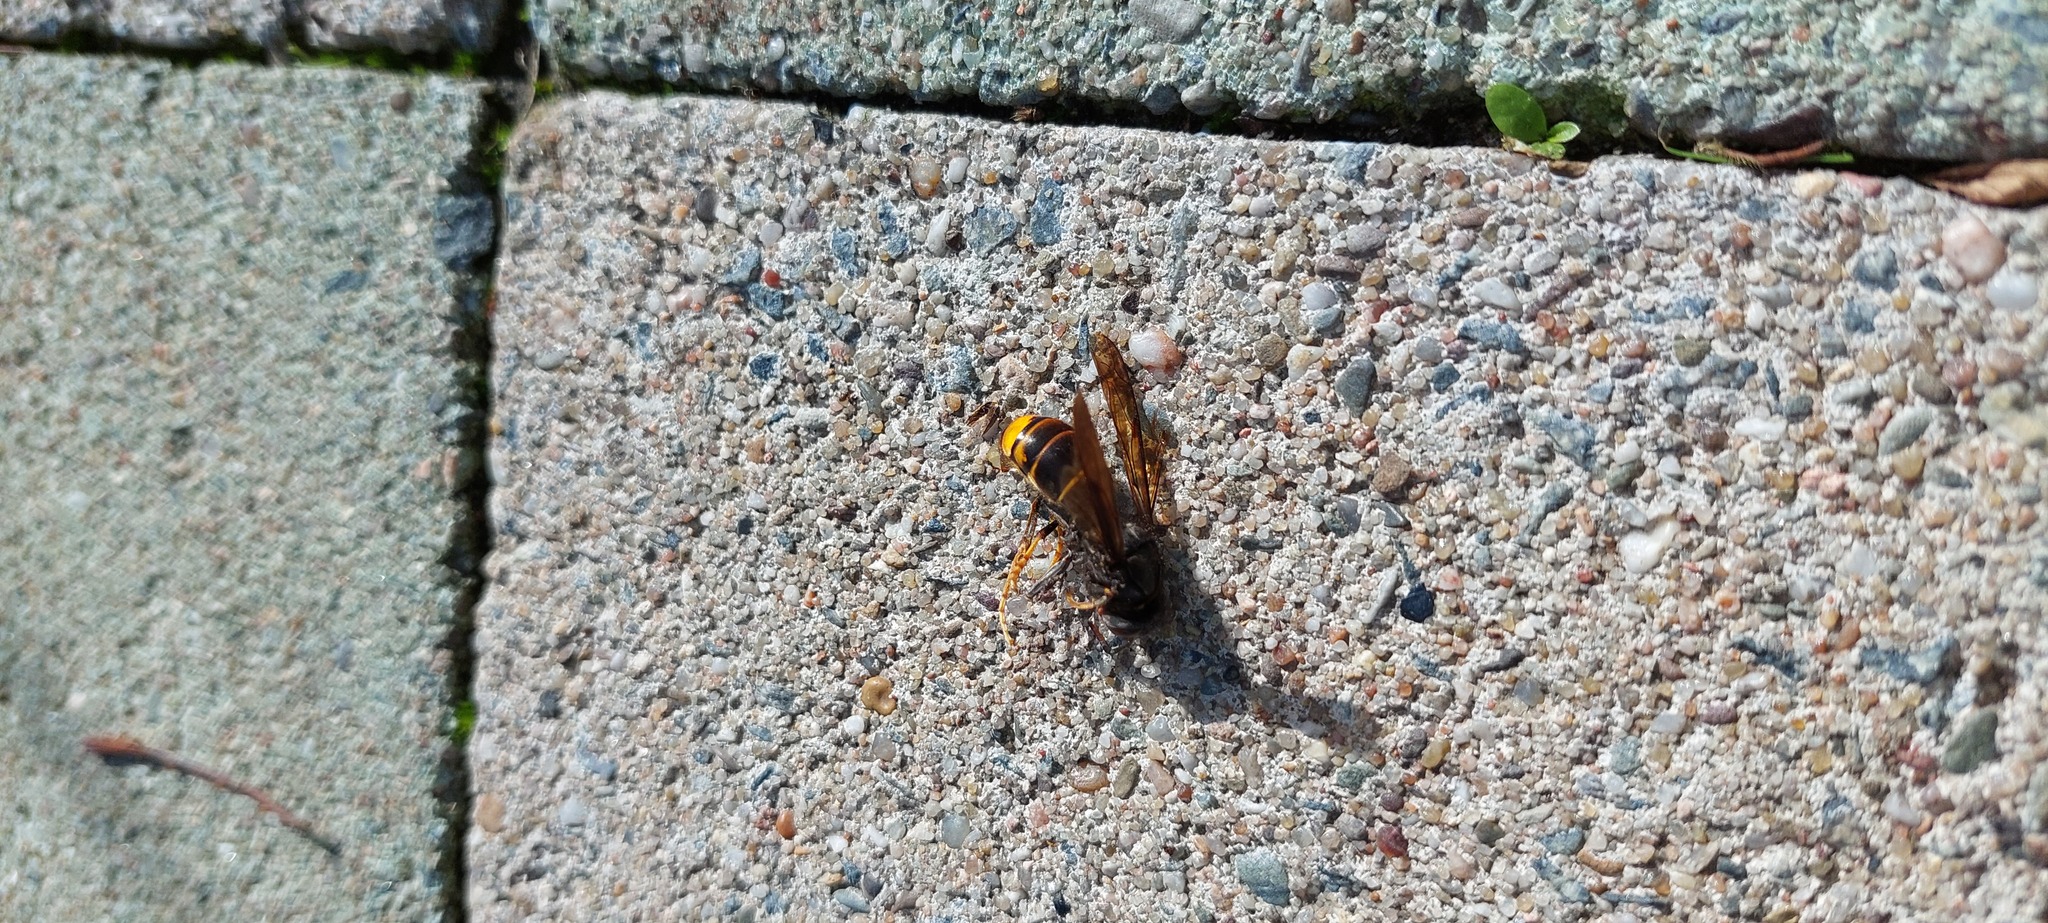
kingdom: Animalia
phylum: Arthropoda
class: Insecta
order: Hymenoptera
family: Vespidae
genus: Vespa
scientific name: Vespa velutina
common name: Asian hornet
